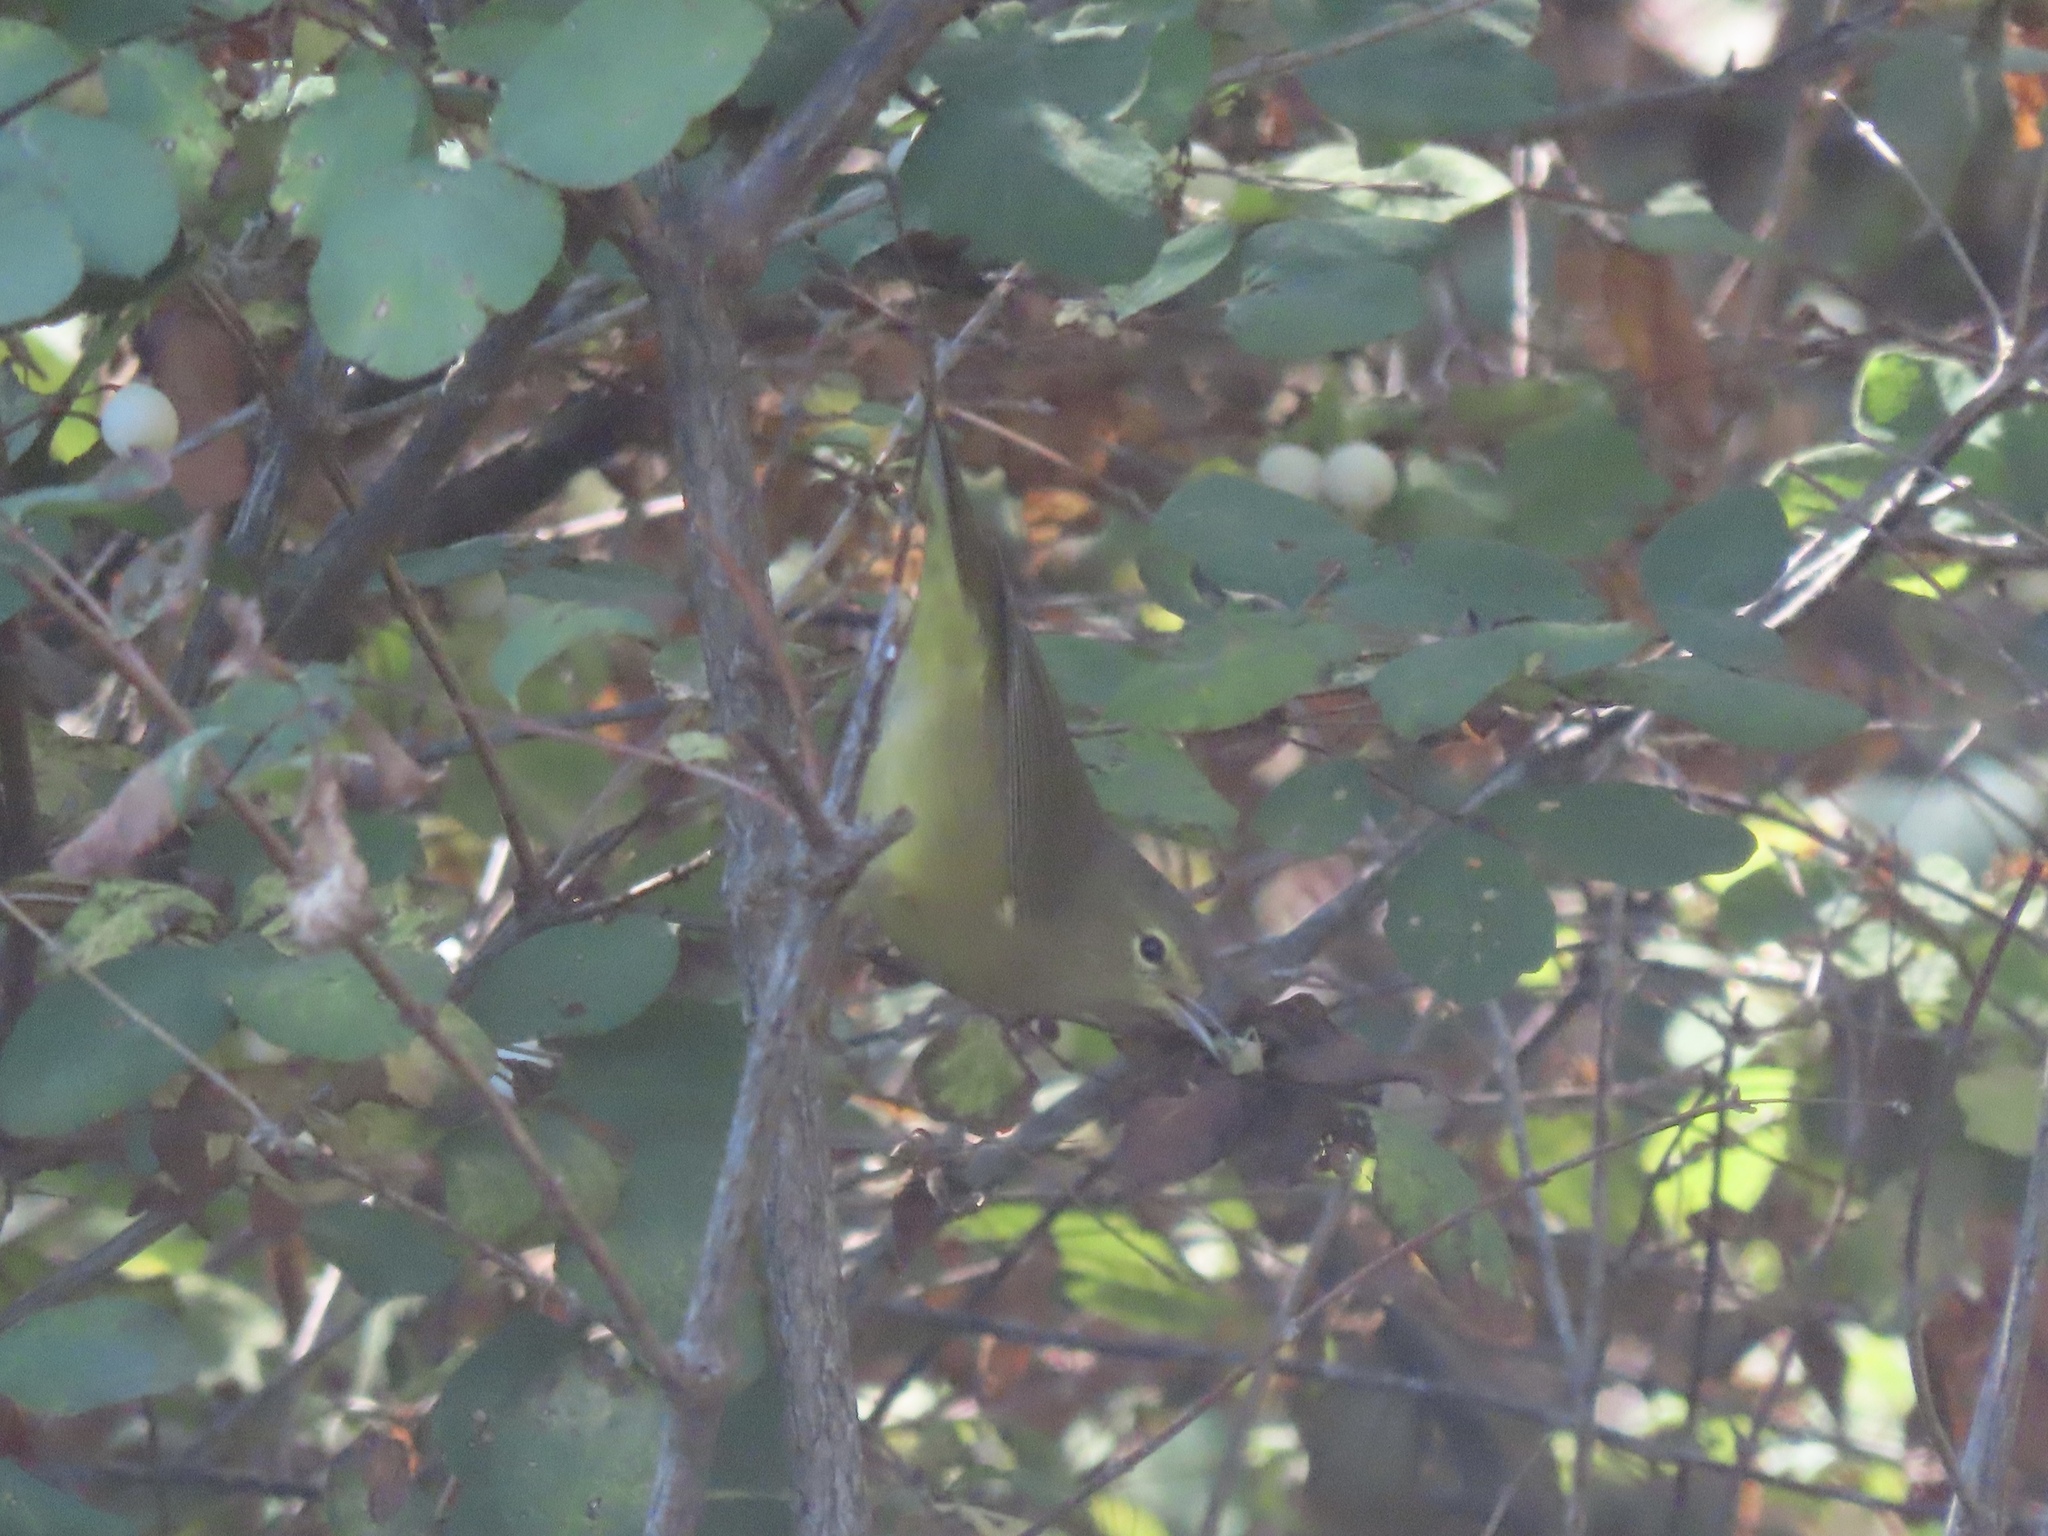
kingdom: Animalia
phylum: Chordata
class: Aves
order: Passeriformes
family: Parulidae
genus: Leiothlypis
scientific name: Leiothlypis celata
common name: Orange-crowned warbler
